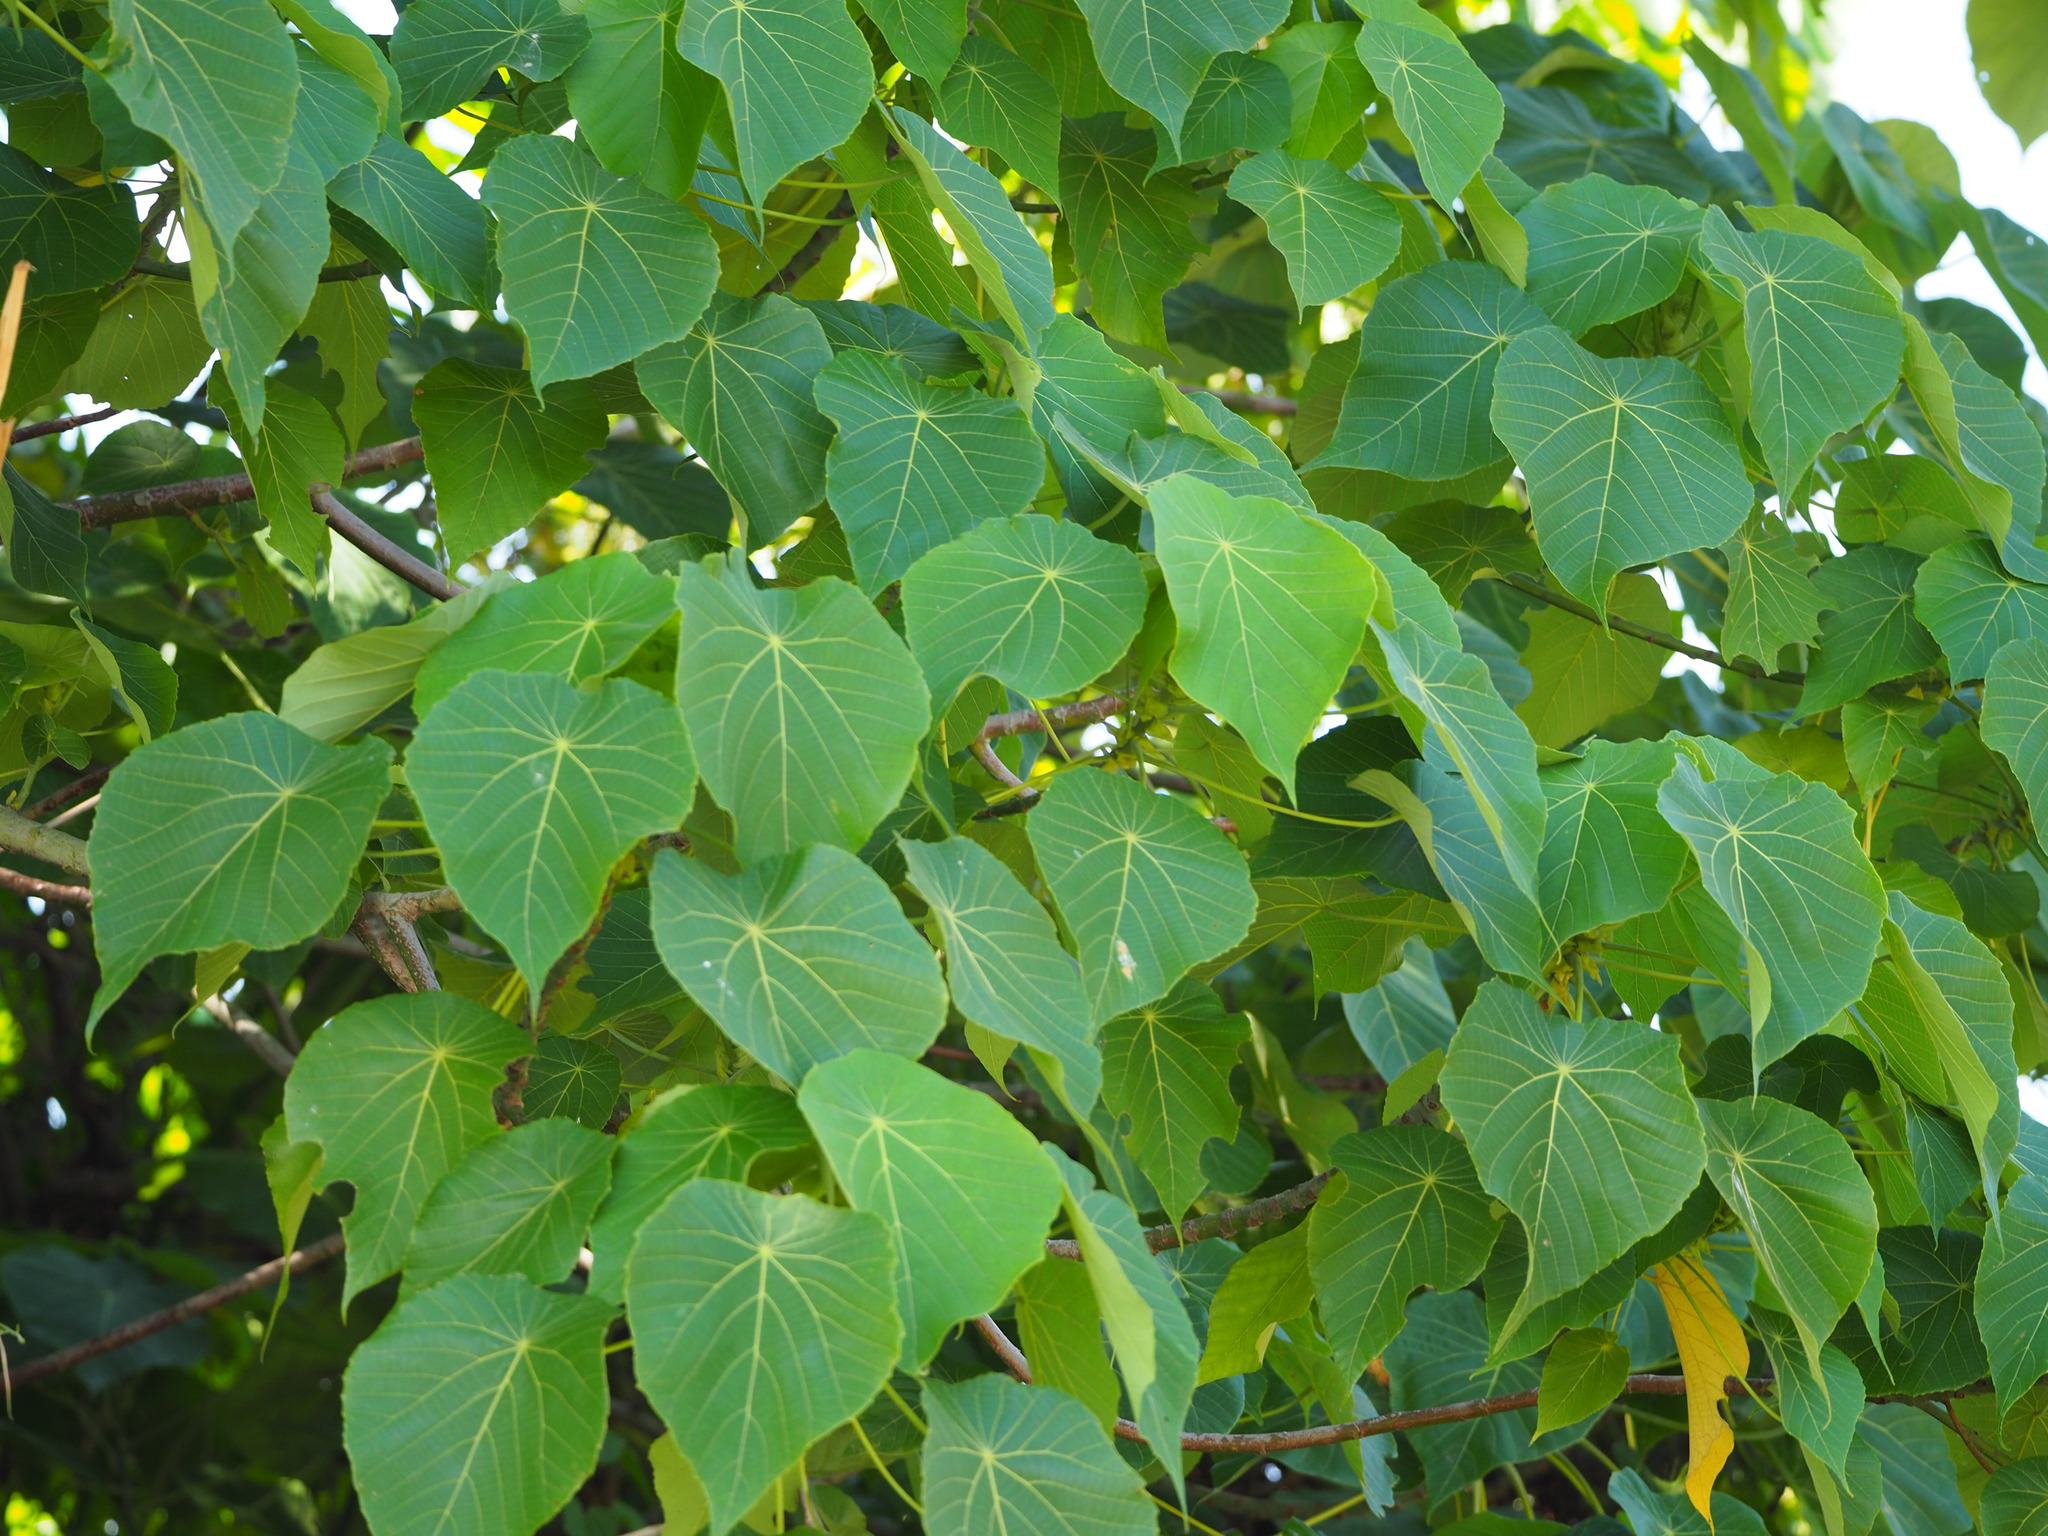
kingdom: Plantae
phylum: Tracheophyta
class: Magnoliopsida
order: Malpighiales
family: Euphorbiaceae
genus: Macaranga
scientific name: Macaranga tanarius
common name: Parasol leaf tree
